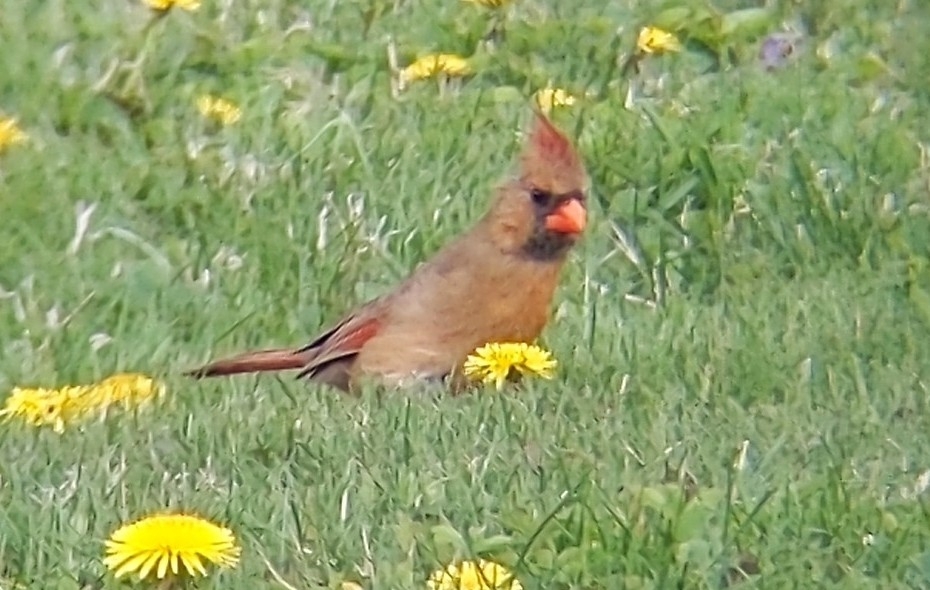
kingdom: Animalia
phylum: Chordata
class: Aves
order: Passeriformes
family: Cardinalidae
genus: Cardinalis
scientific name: Cardinalis cardinalis
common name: Northern cardinal
